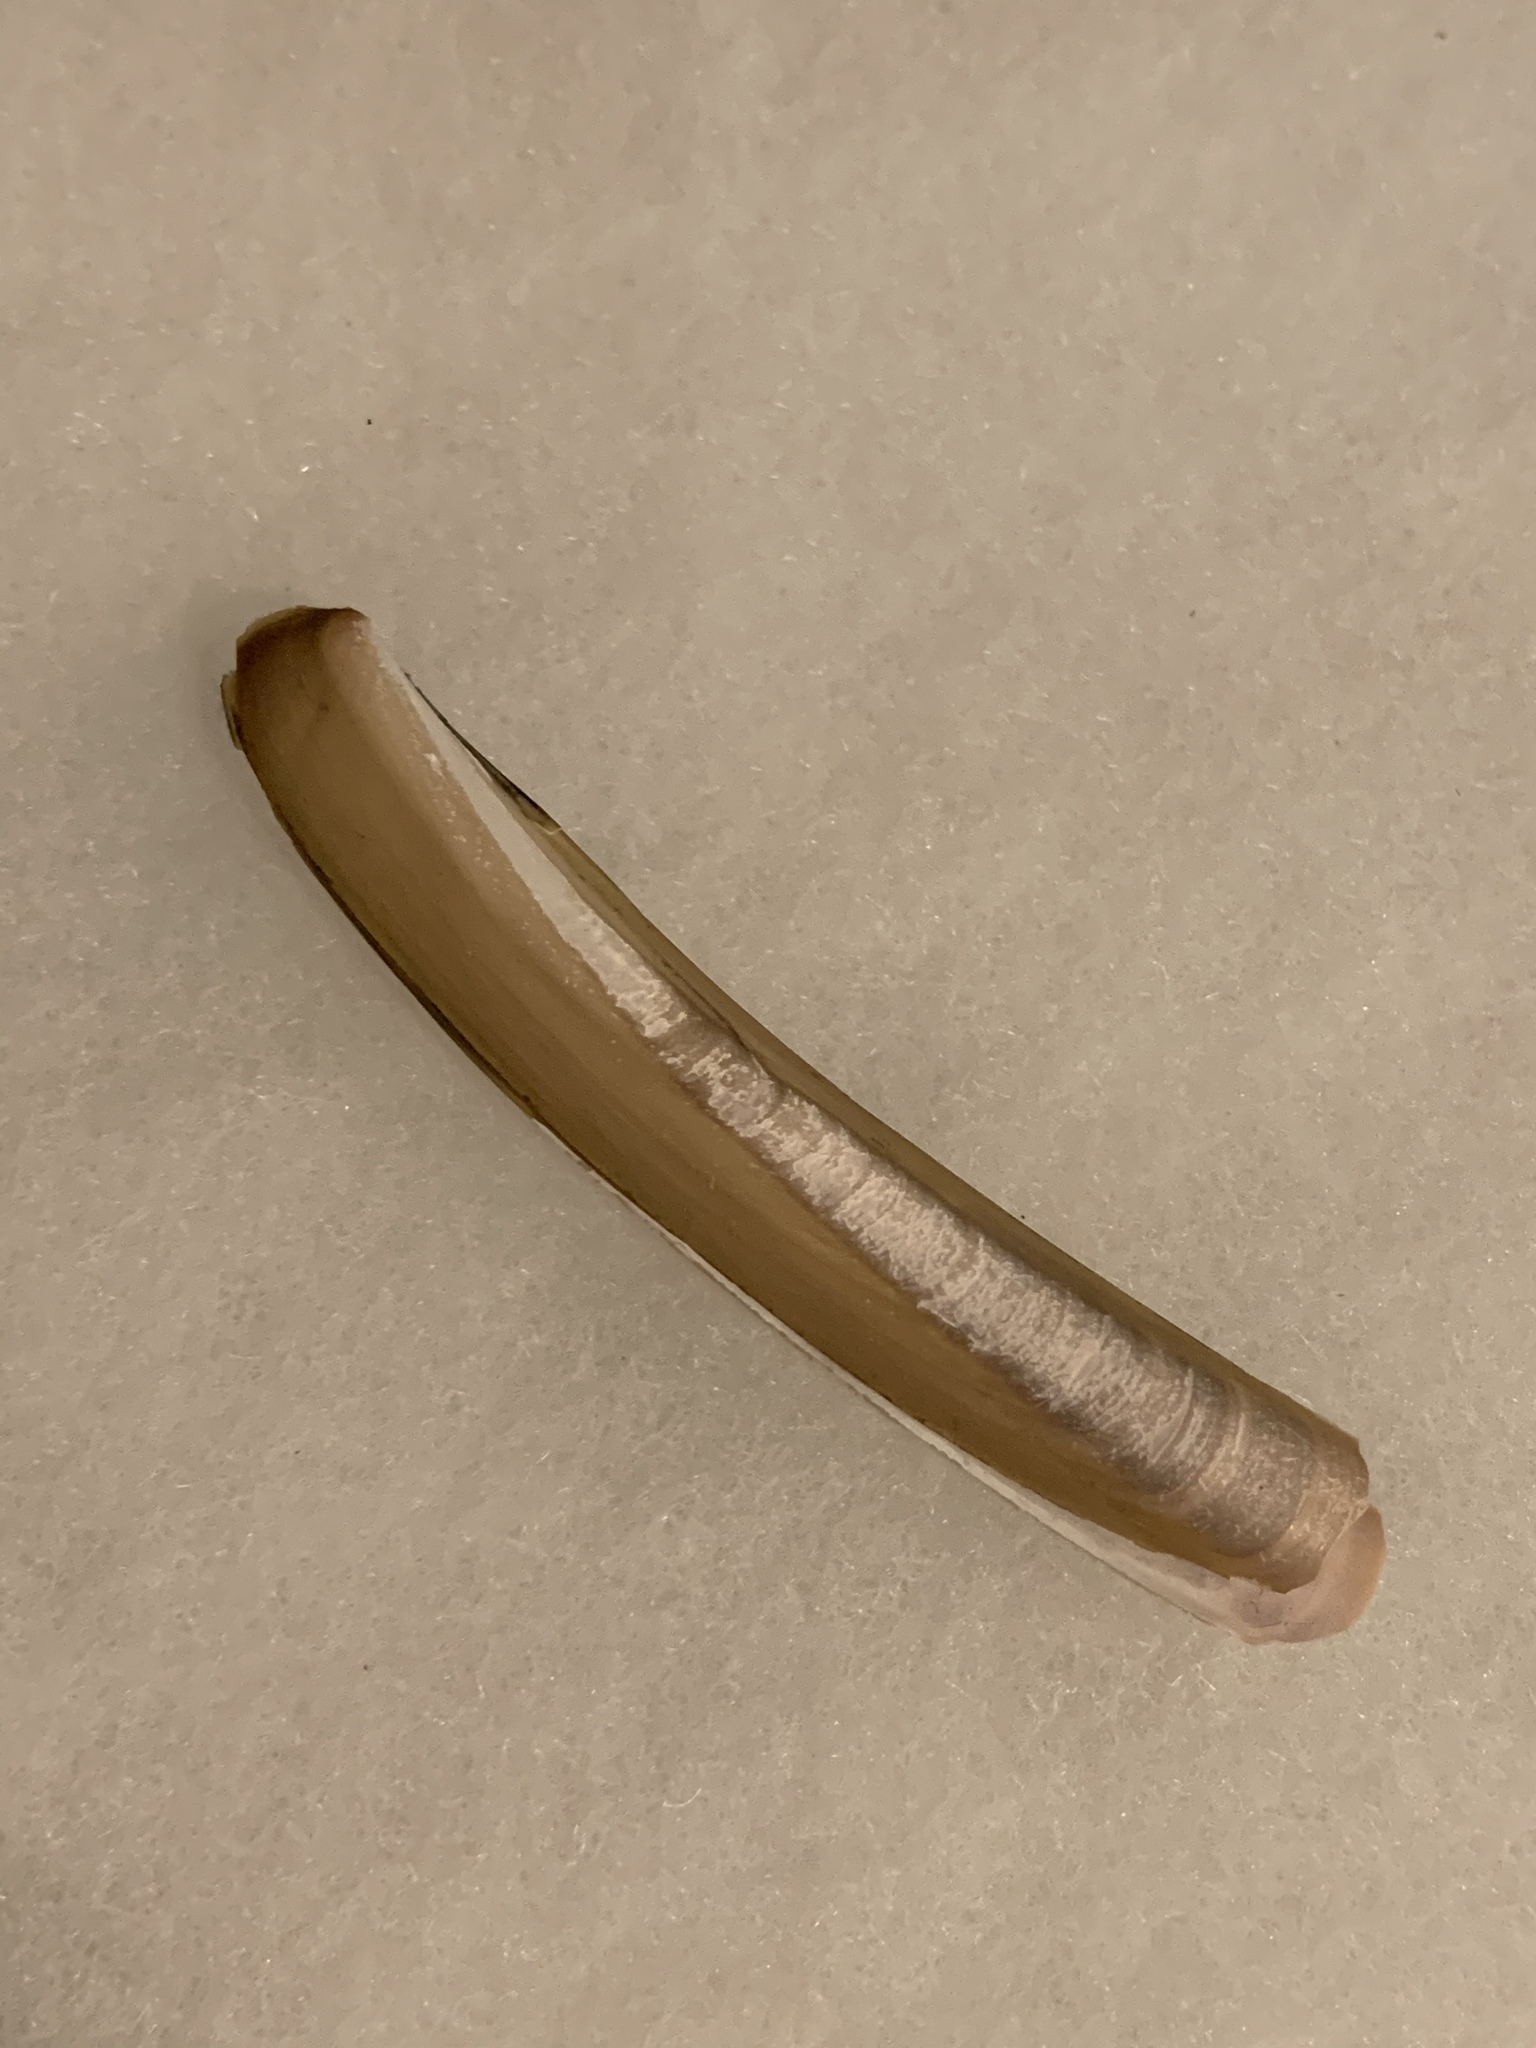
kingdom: Animalia
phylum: Mollusca
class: Bivalvia
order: Adapedonta
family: Pharidae
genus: Ensis
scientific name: Ensis leei
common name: American jack knife clam
